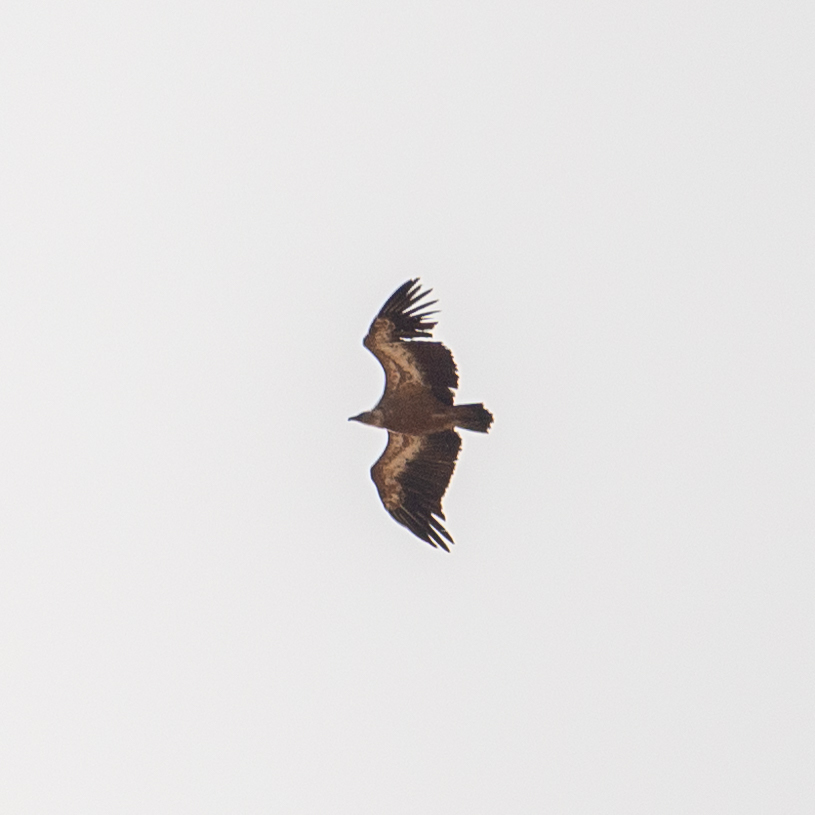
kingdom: Animalia
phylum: Chordata
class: Aves
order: Accipitriformes
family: Accipitridae
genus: Gyps
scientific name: Gyps fulvus
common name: Griffon vulture
